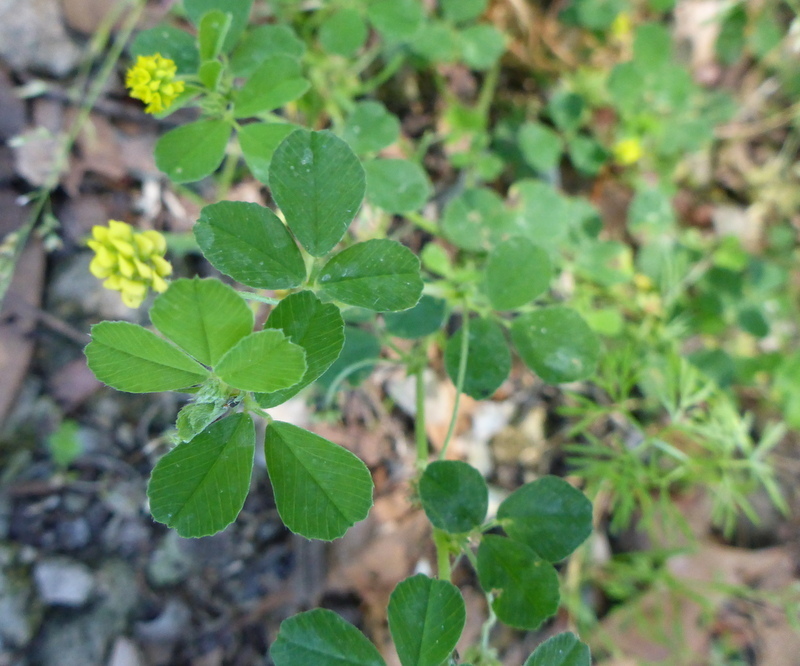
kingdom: Plantae
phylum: Tracheophyta
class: Magnoliopsida
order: Fabales
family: Fabaceae
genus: Medicago
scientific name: Medicago lupulina
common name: Black medick
